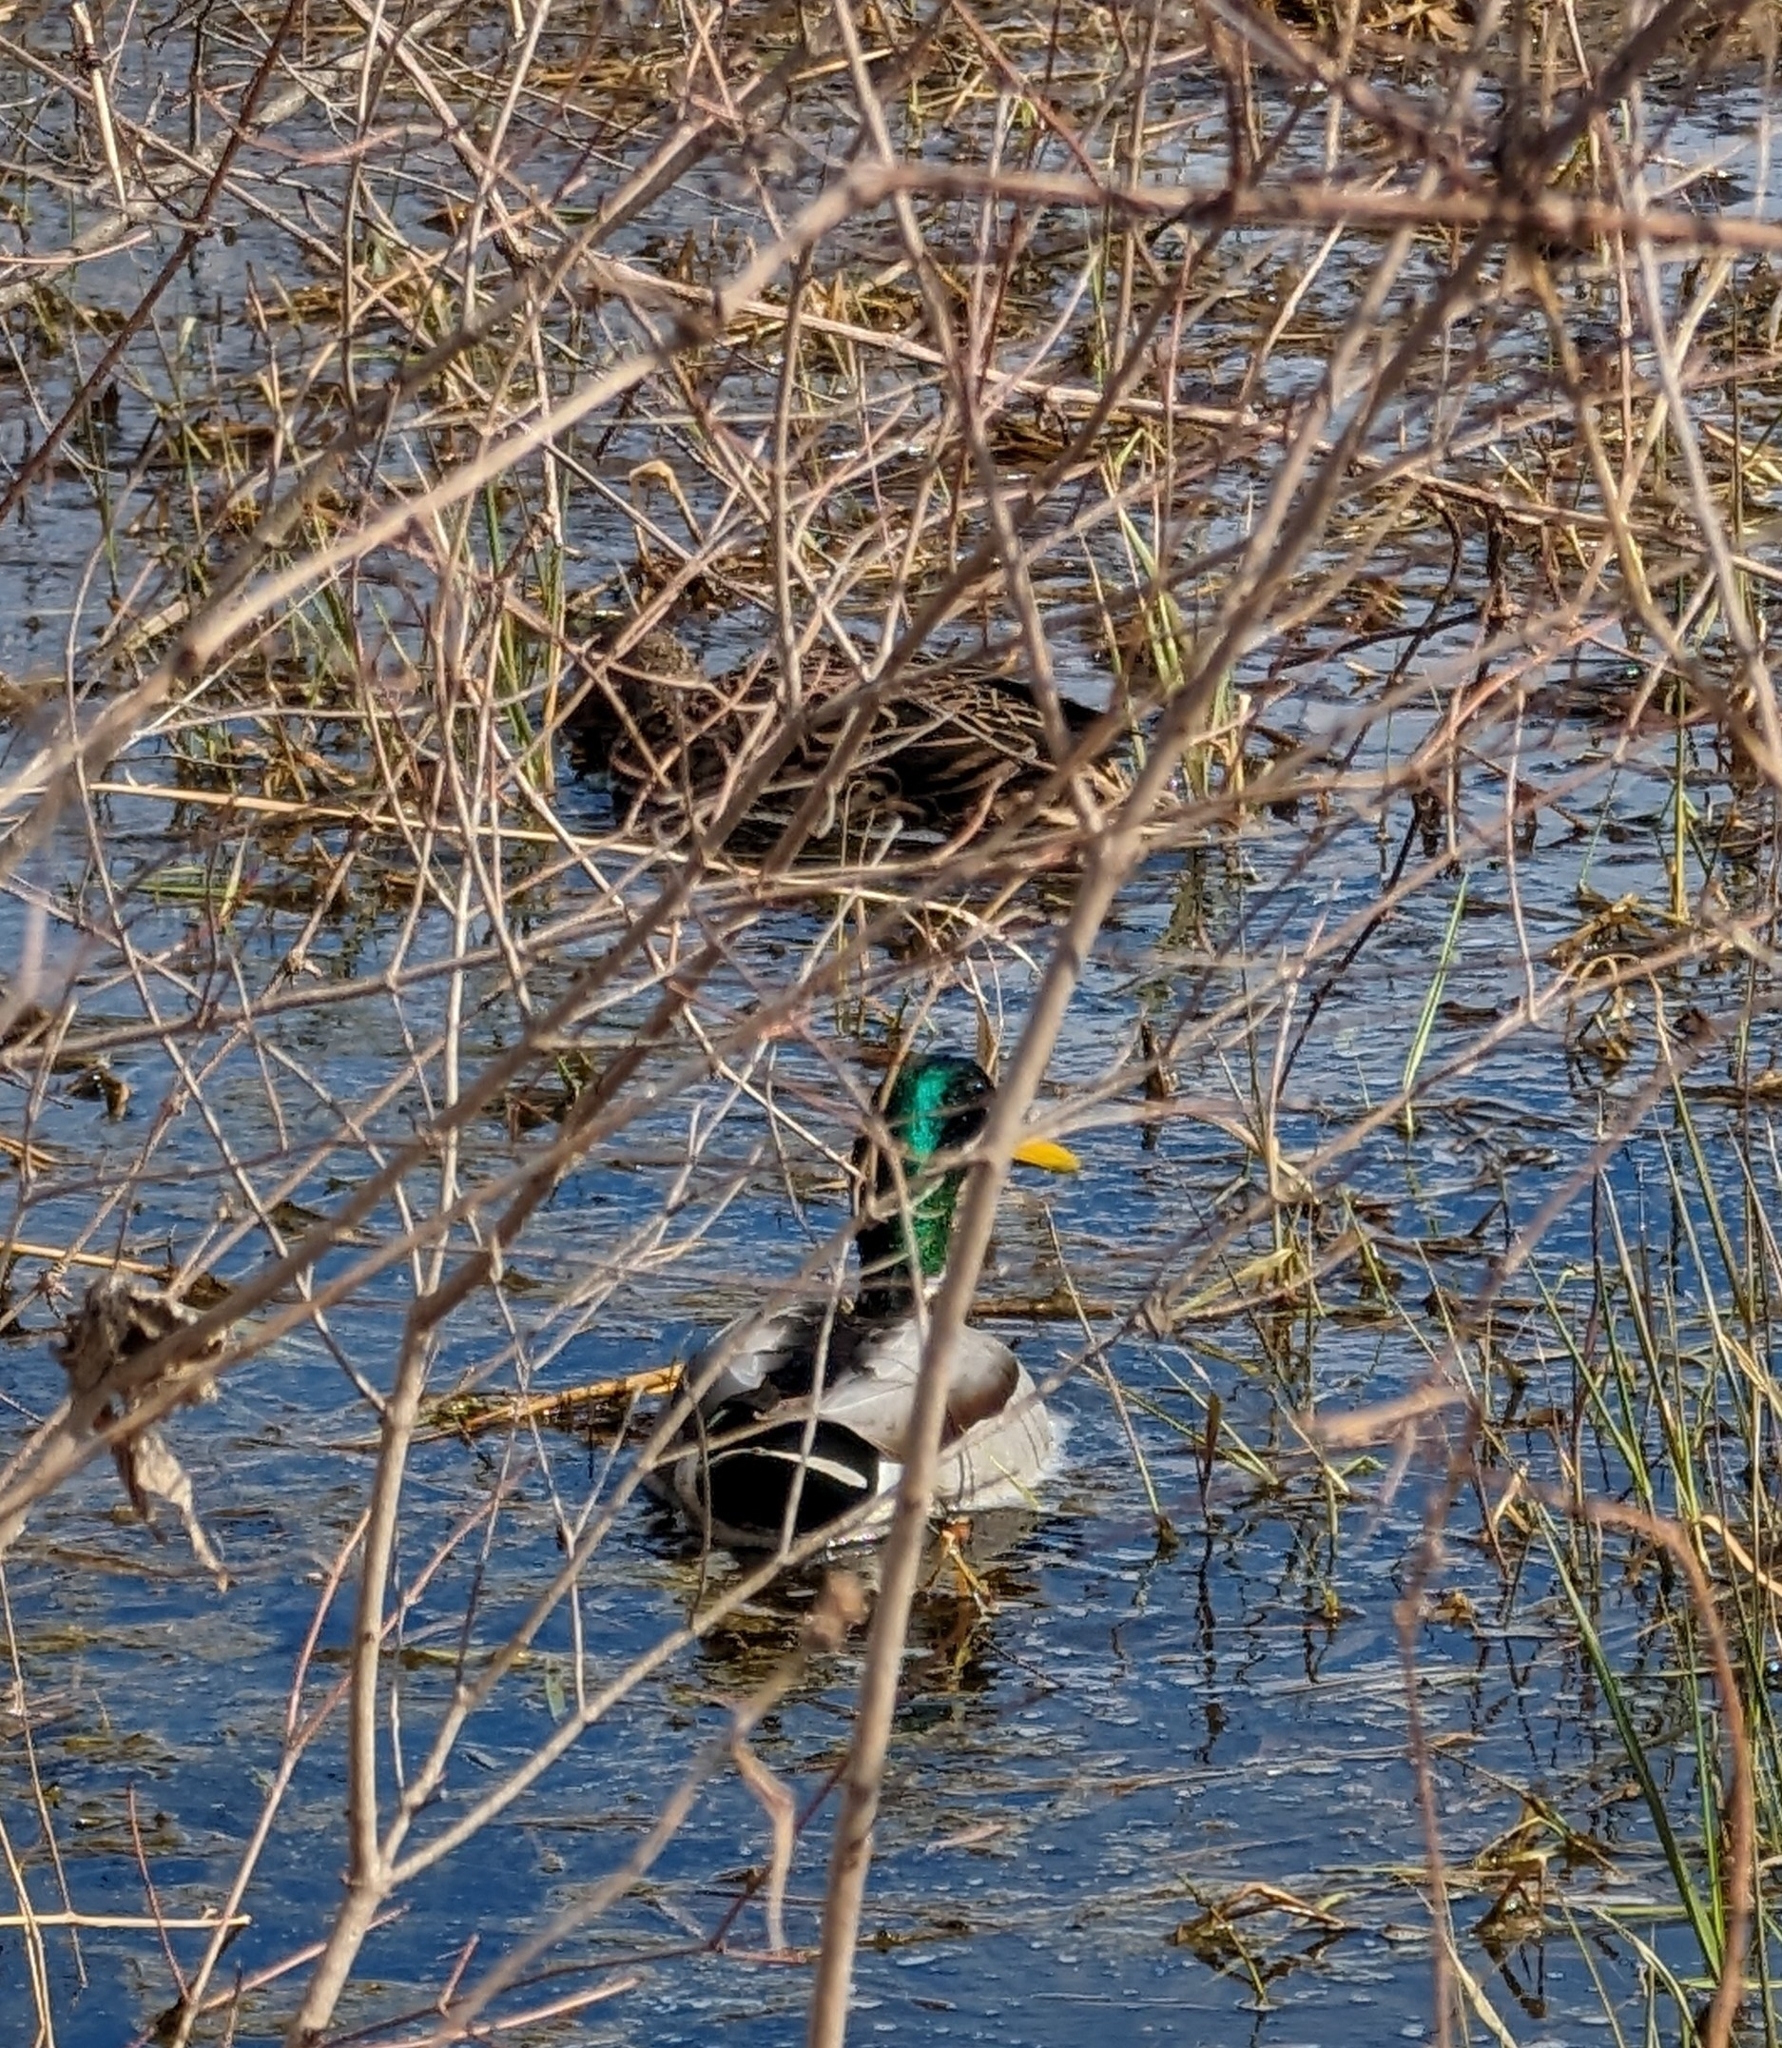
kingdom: Animalia
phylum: Chordata
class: Aves
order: Anseriformes
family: Anatidae
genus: Anas
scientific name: Anas platyrhynchos
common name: Mallard
